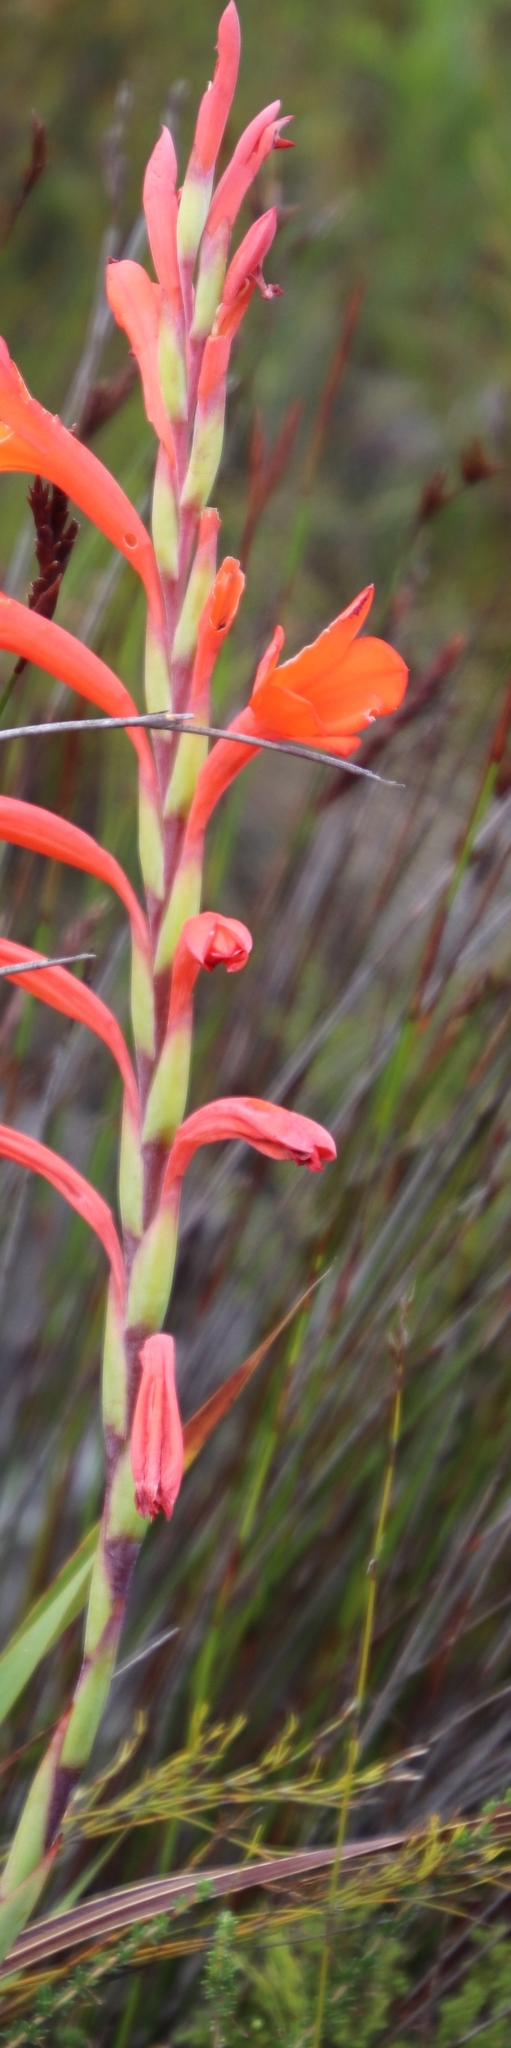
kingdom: Plantae
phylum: Tracheophyta
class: Liliopsida
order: Asparagales
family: Iridaceae
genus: Watsonia
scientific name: Watsonia schlechteri
